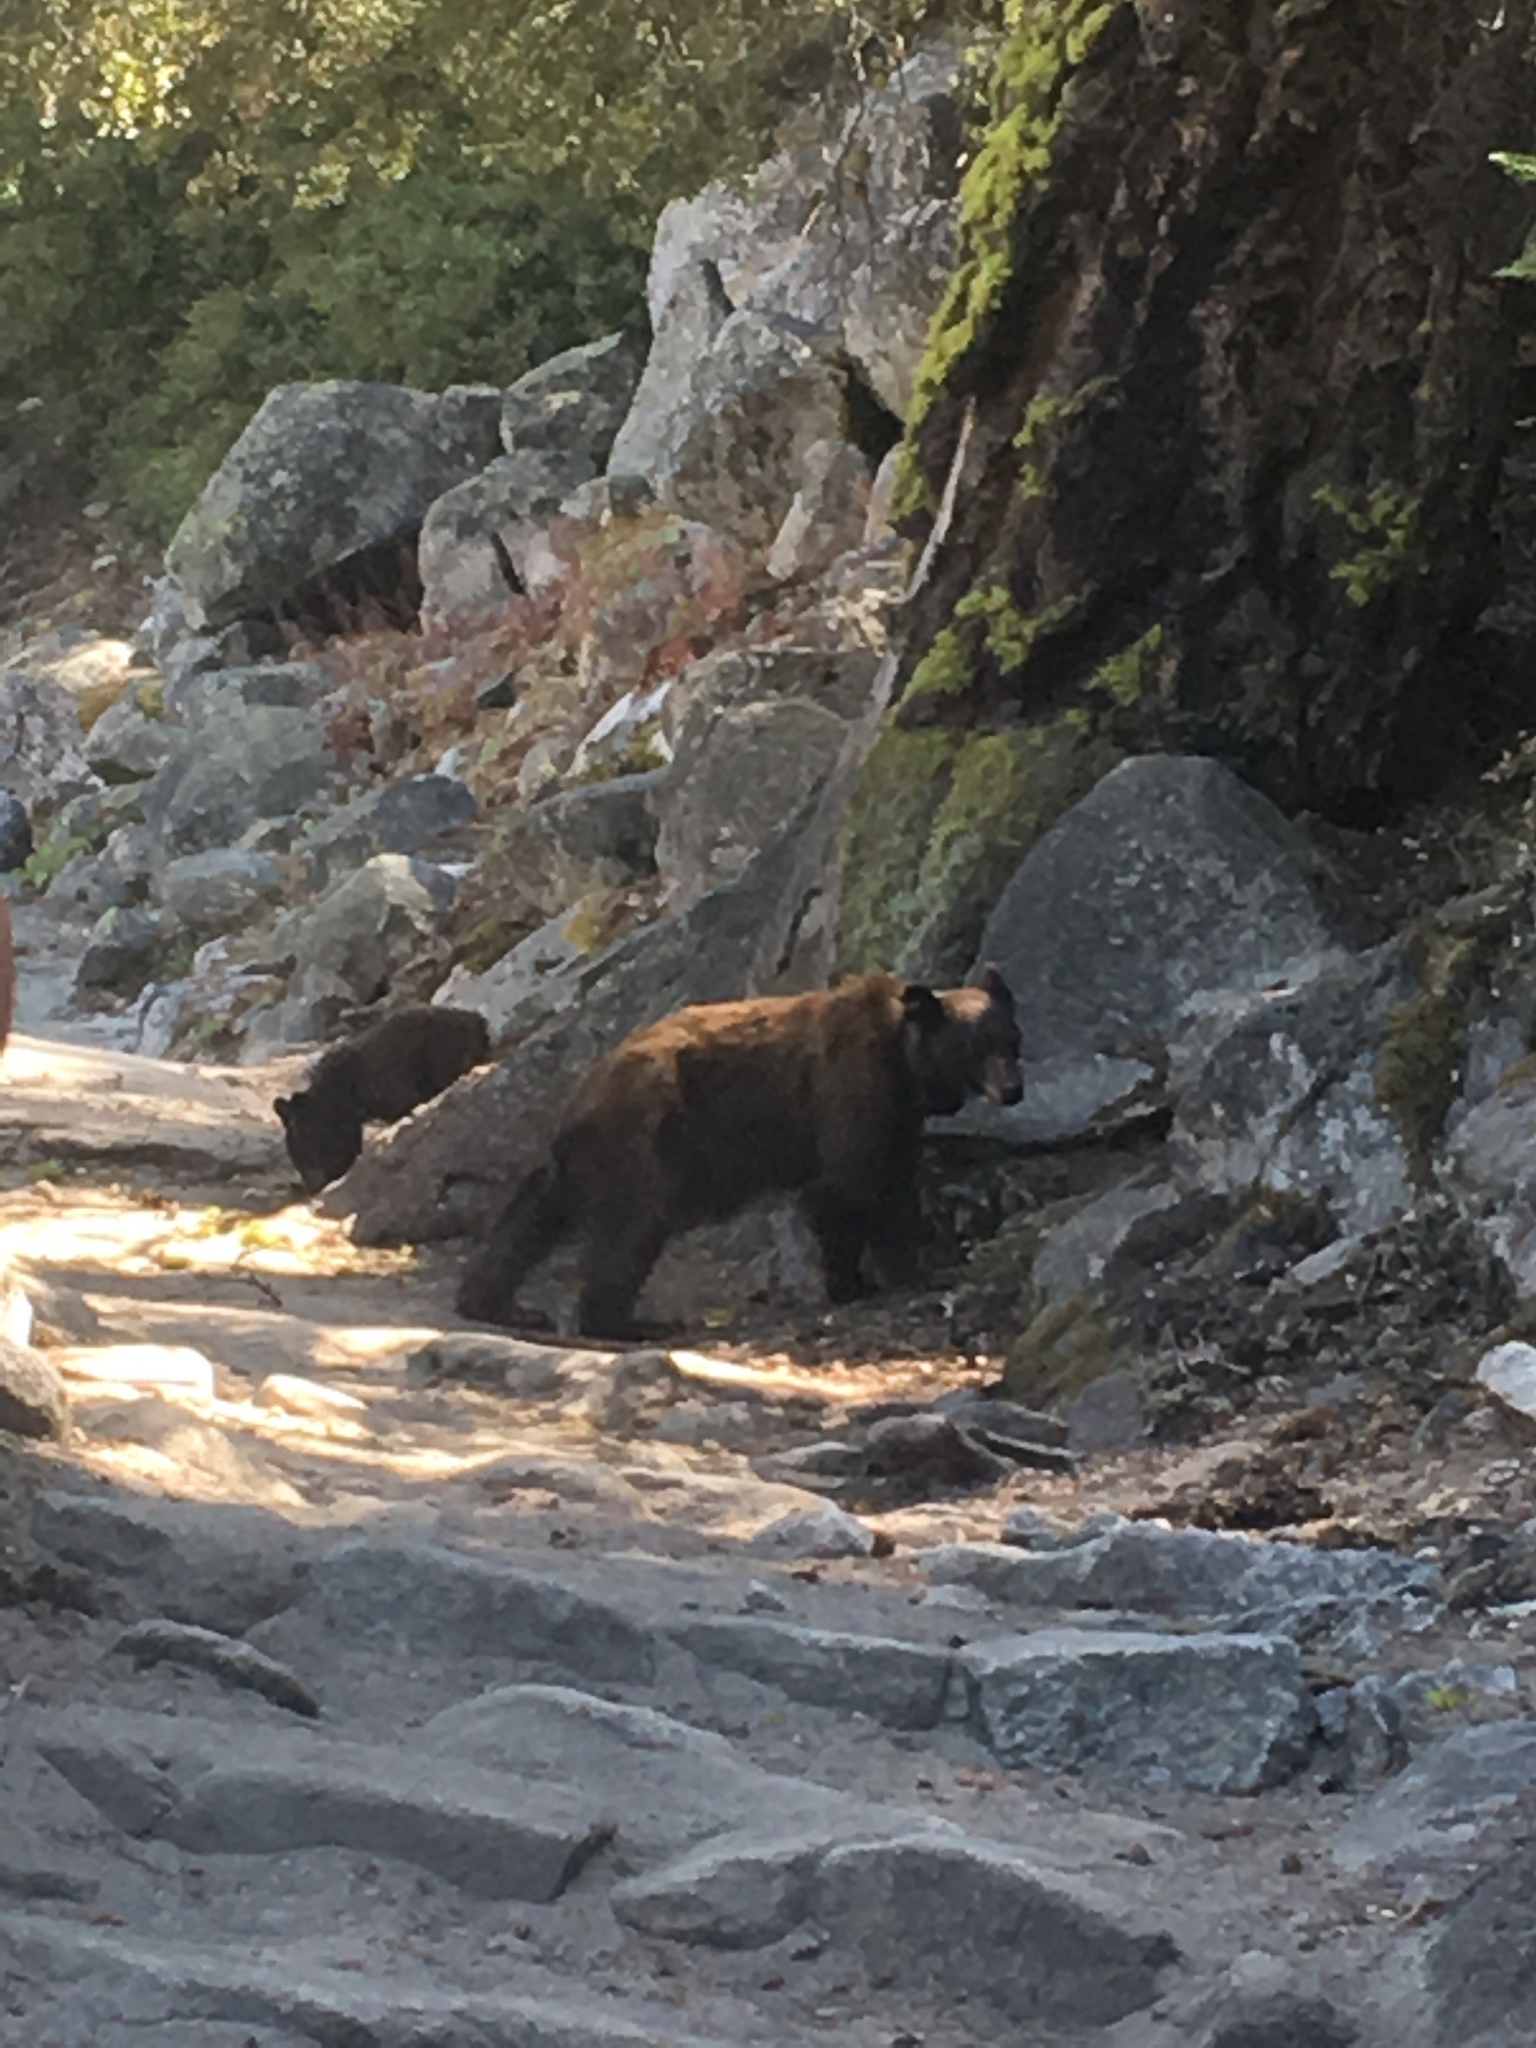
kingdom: Animalia
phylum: Chordata
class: Mammalia
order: Carnivora
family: Ursidae
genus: Ursus
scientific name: Ursus americanus
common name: American black bear
